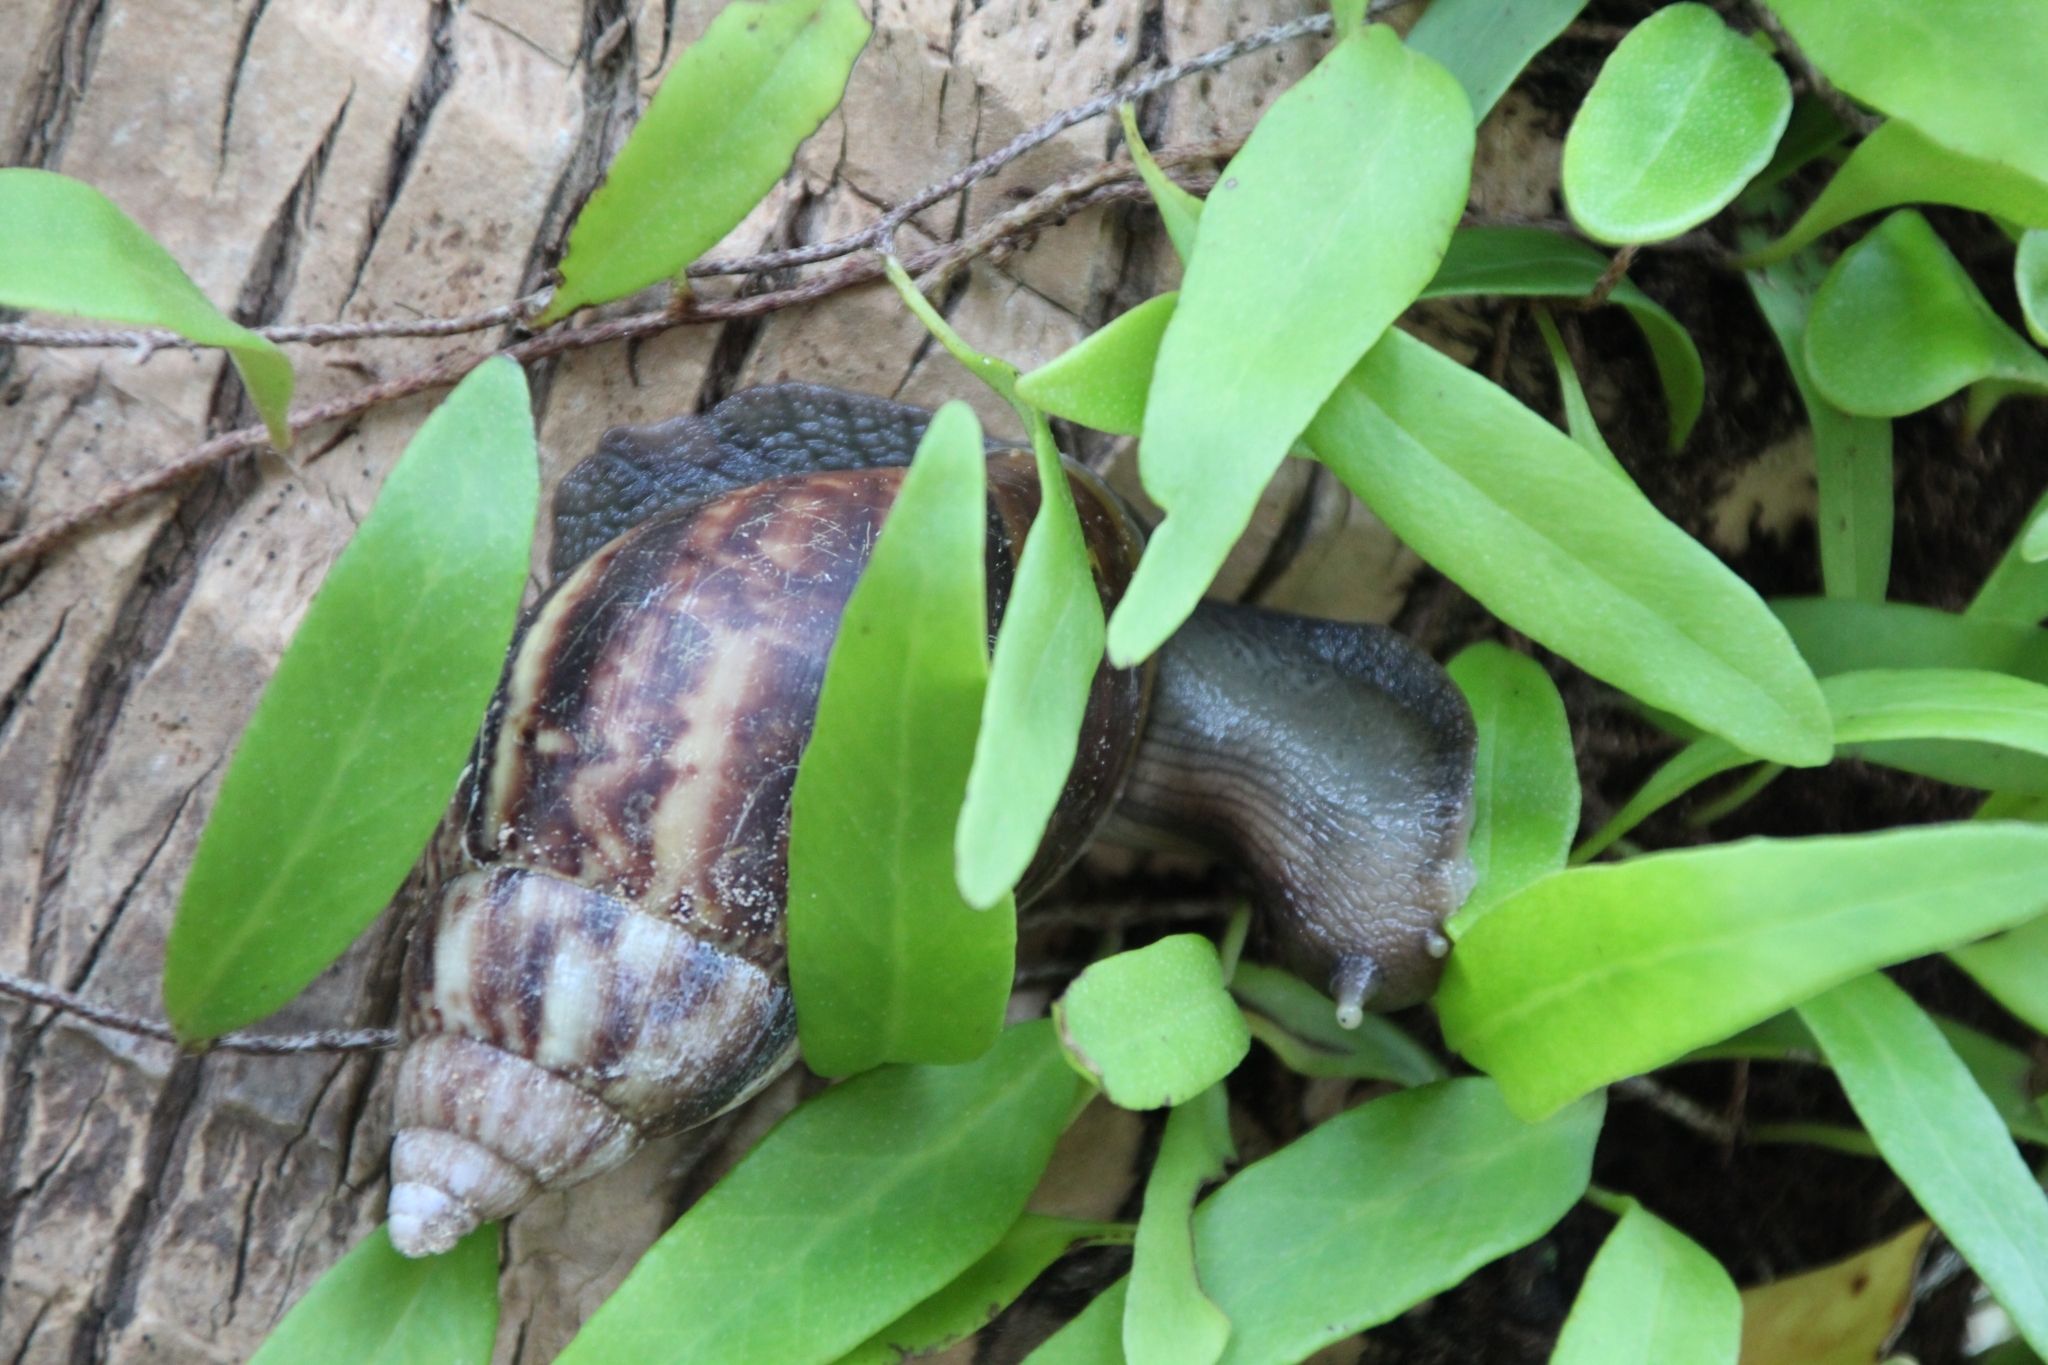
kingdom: Animalia
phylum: Mollusca
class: Gastropoda
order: Stylommatophora
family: Achatinidae
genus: Lissachatina
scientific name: Lissachatina fulica
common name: Giant african snail
